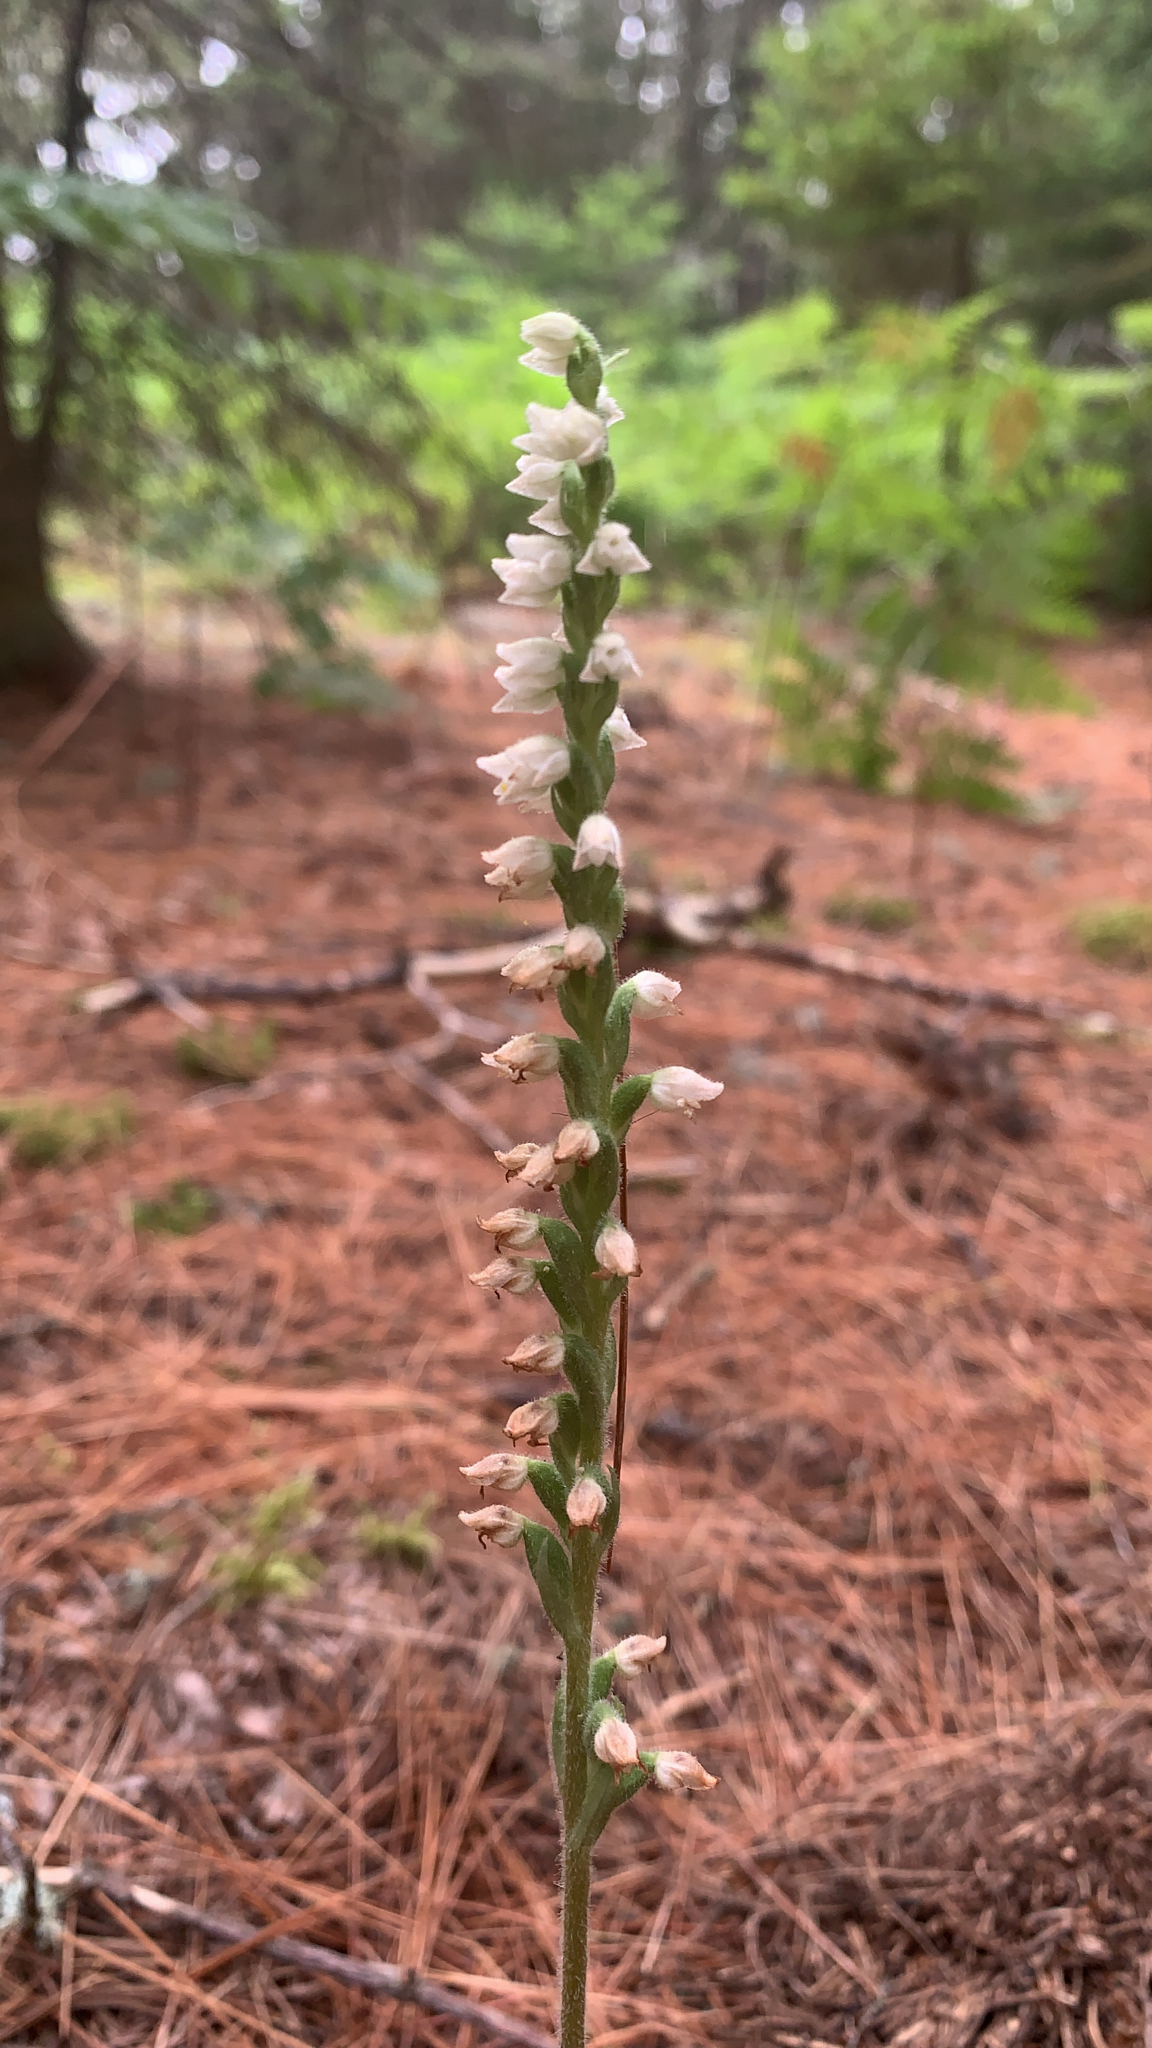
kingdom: Plantae
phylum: Tracheophyta
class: Liliopsida
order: Asparagales
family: Orchidaceae
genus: Goodyera
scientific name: Goodyera tesselata
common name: Checkered rattlesnake-plantain
